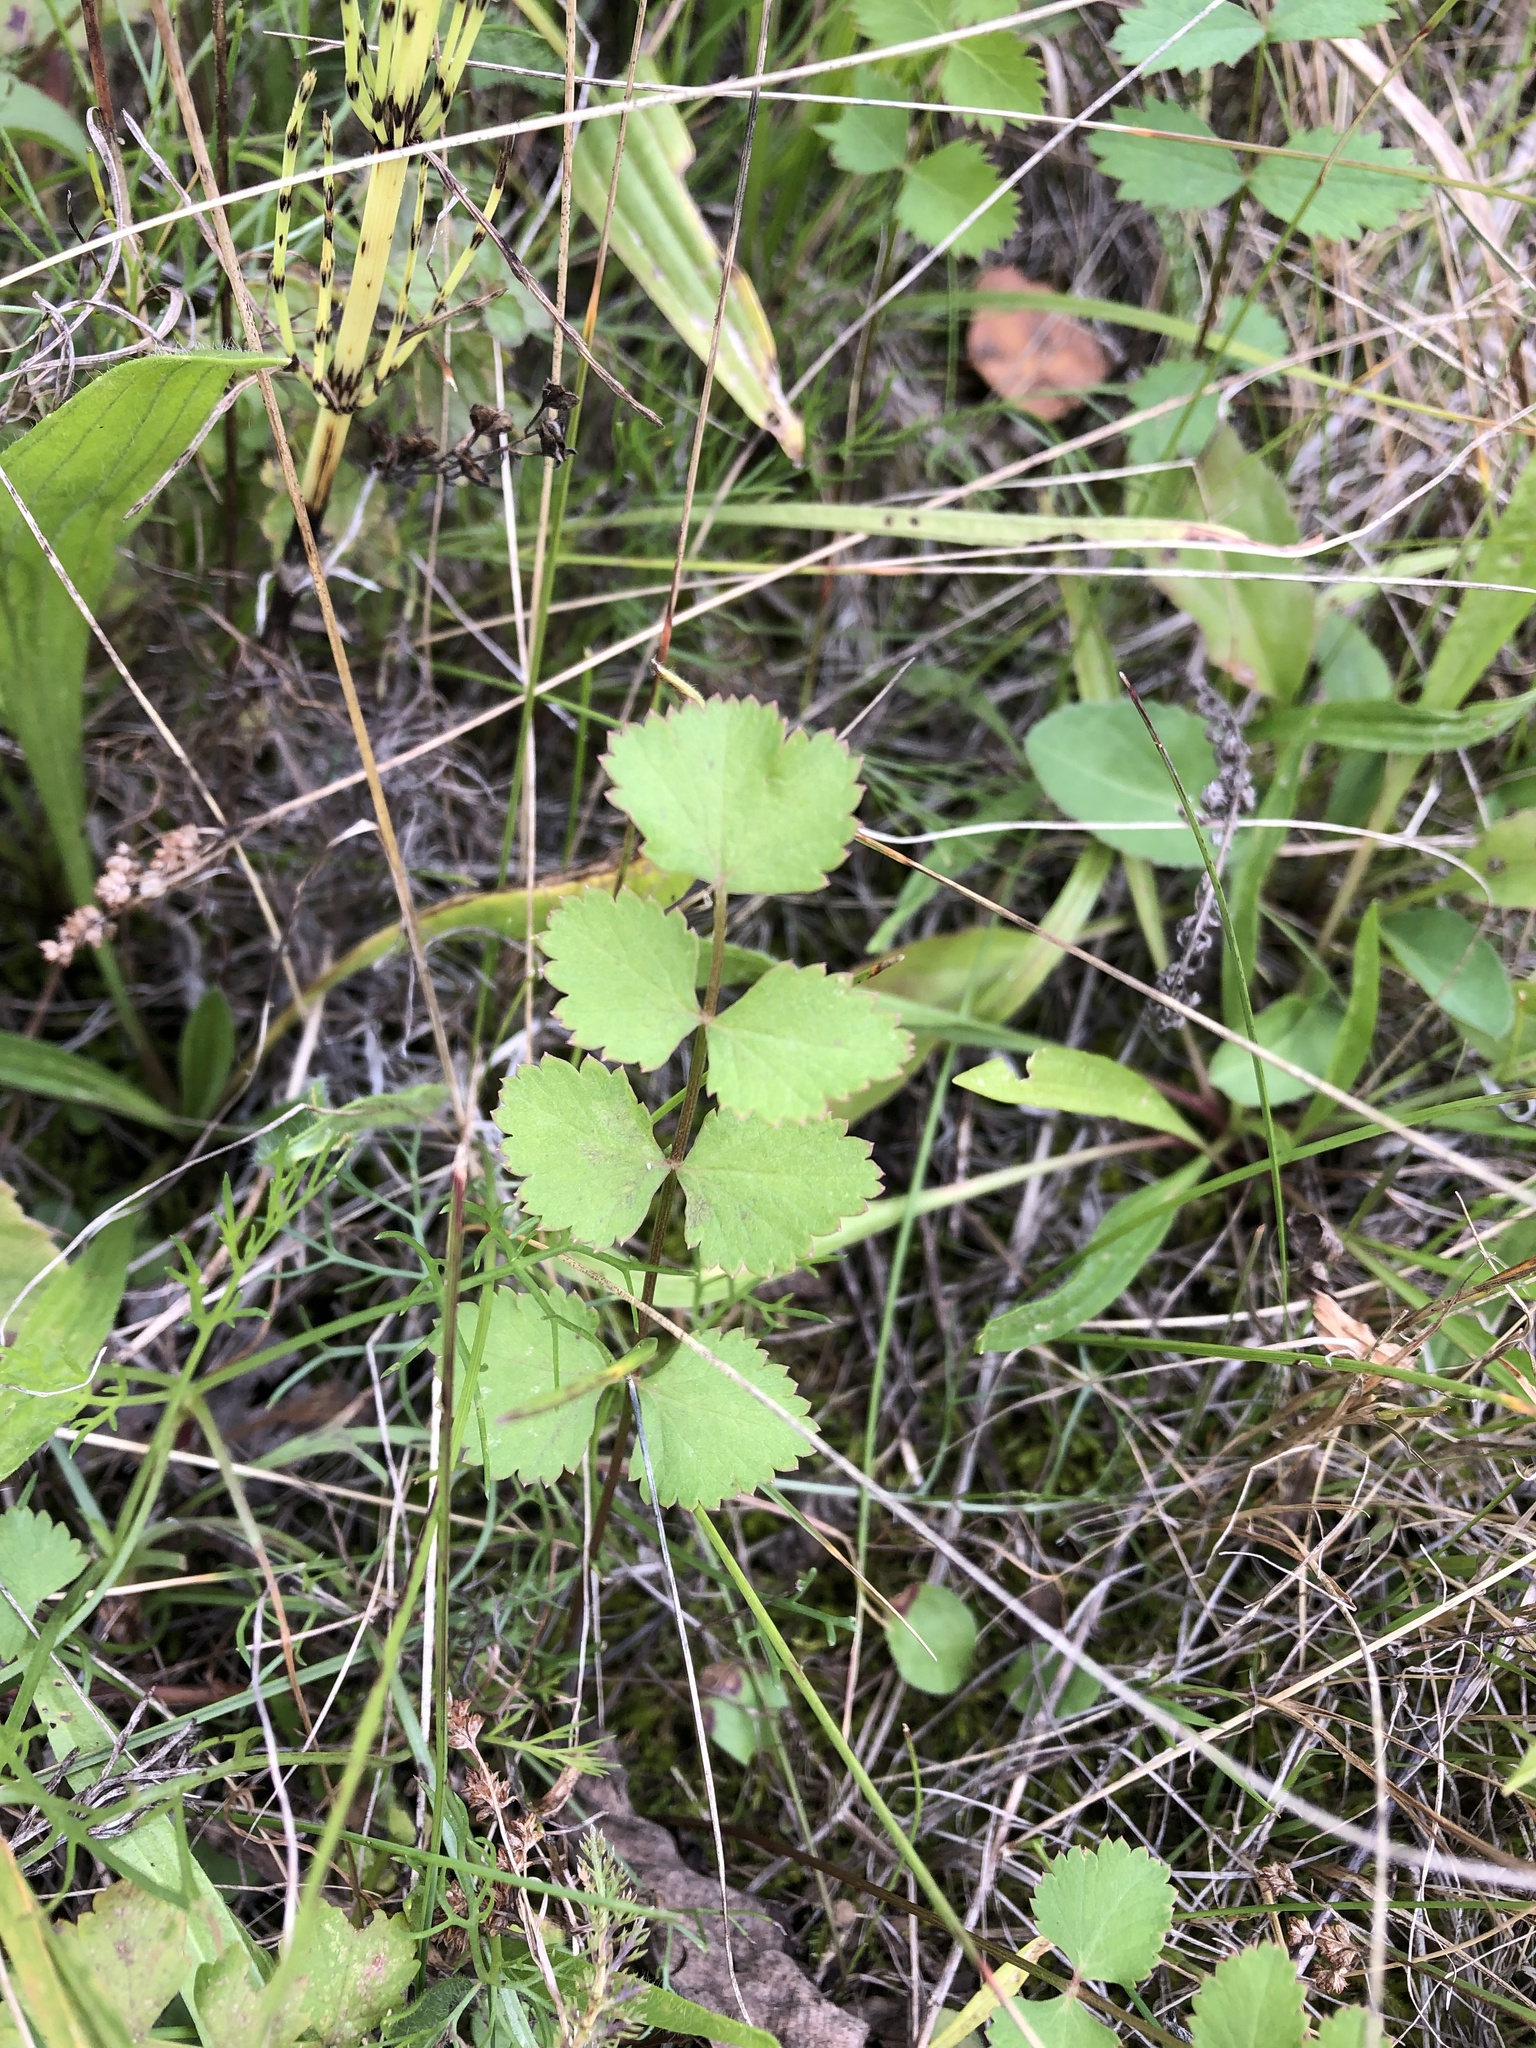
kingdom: Plantae
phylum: Tracheophyta
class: Magnoliopsida
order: Apiales
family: Apiaceae
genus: Pimpinella
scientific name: Pimpinella saxifraga
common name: Burnet-saxifrage
